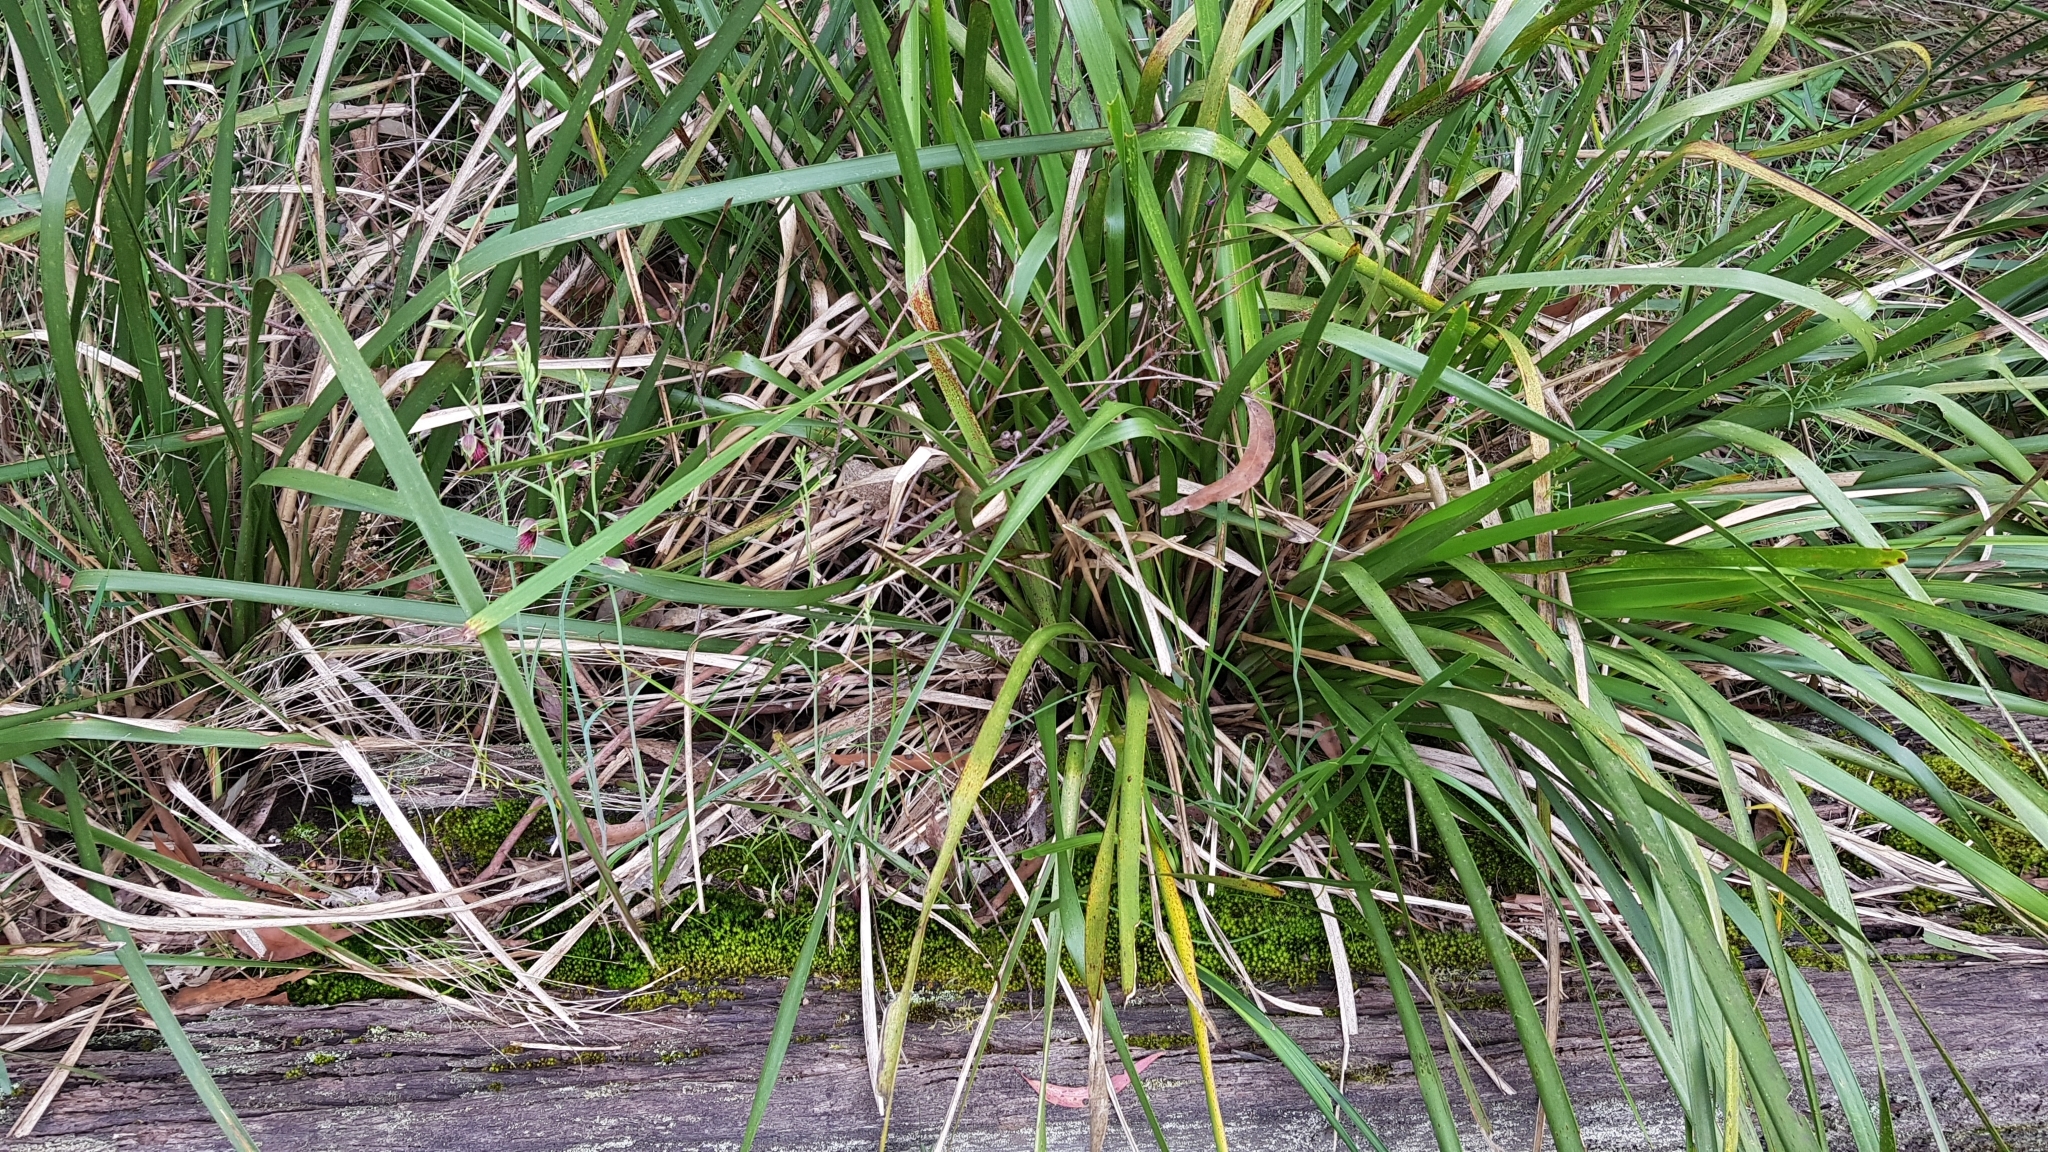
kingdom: Plantae
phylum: Tracheophyta
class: Liliopsida
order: Asparagales
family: Orchidaceae
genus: Calochilus
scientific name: Calochilus paludosus
